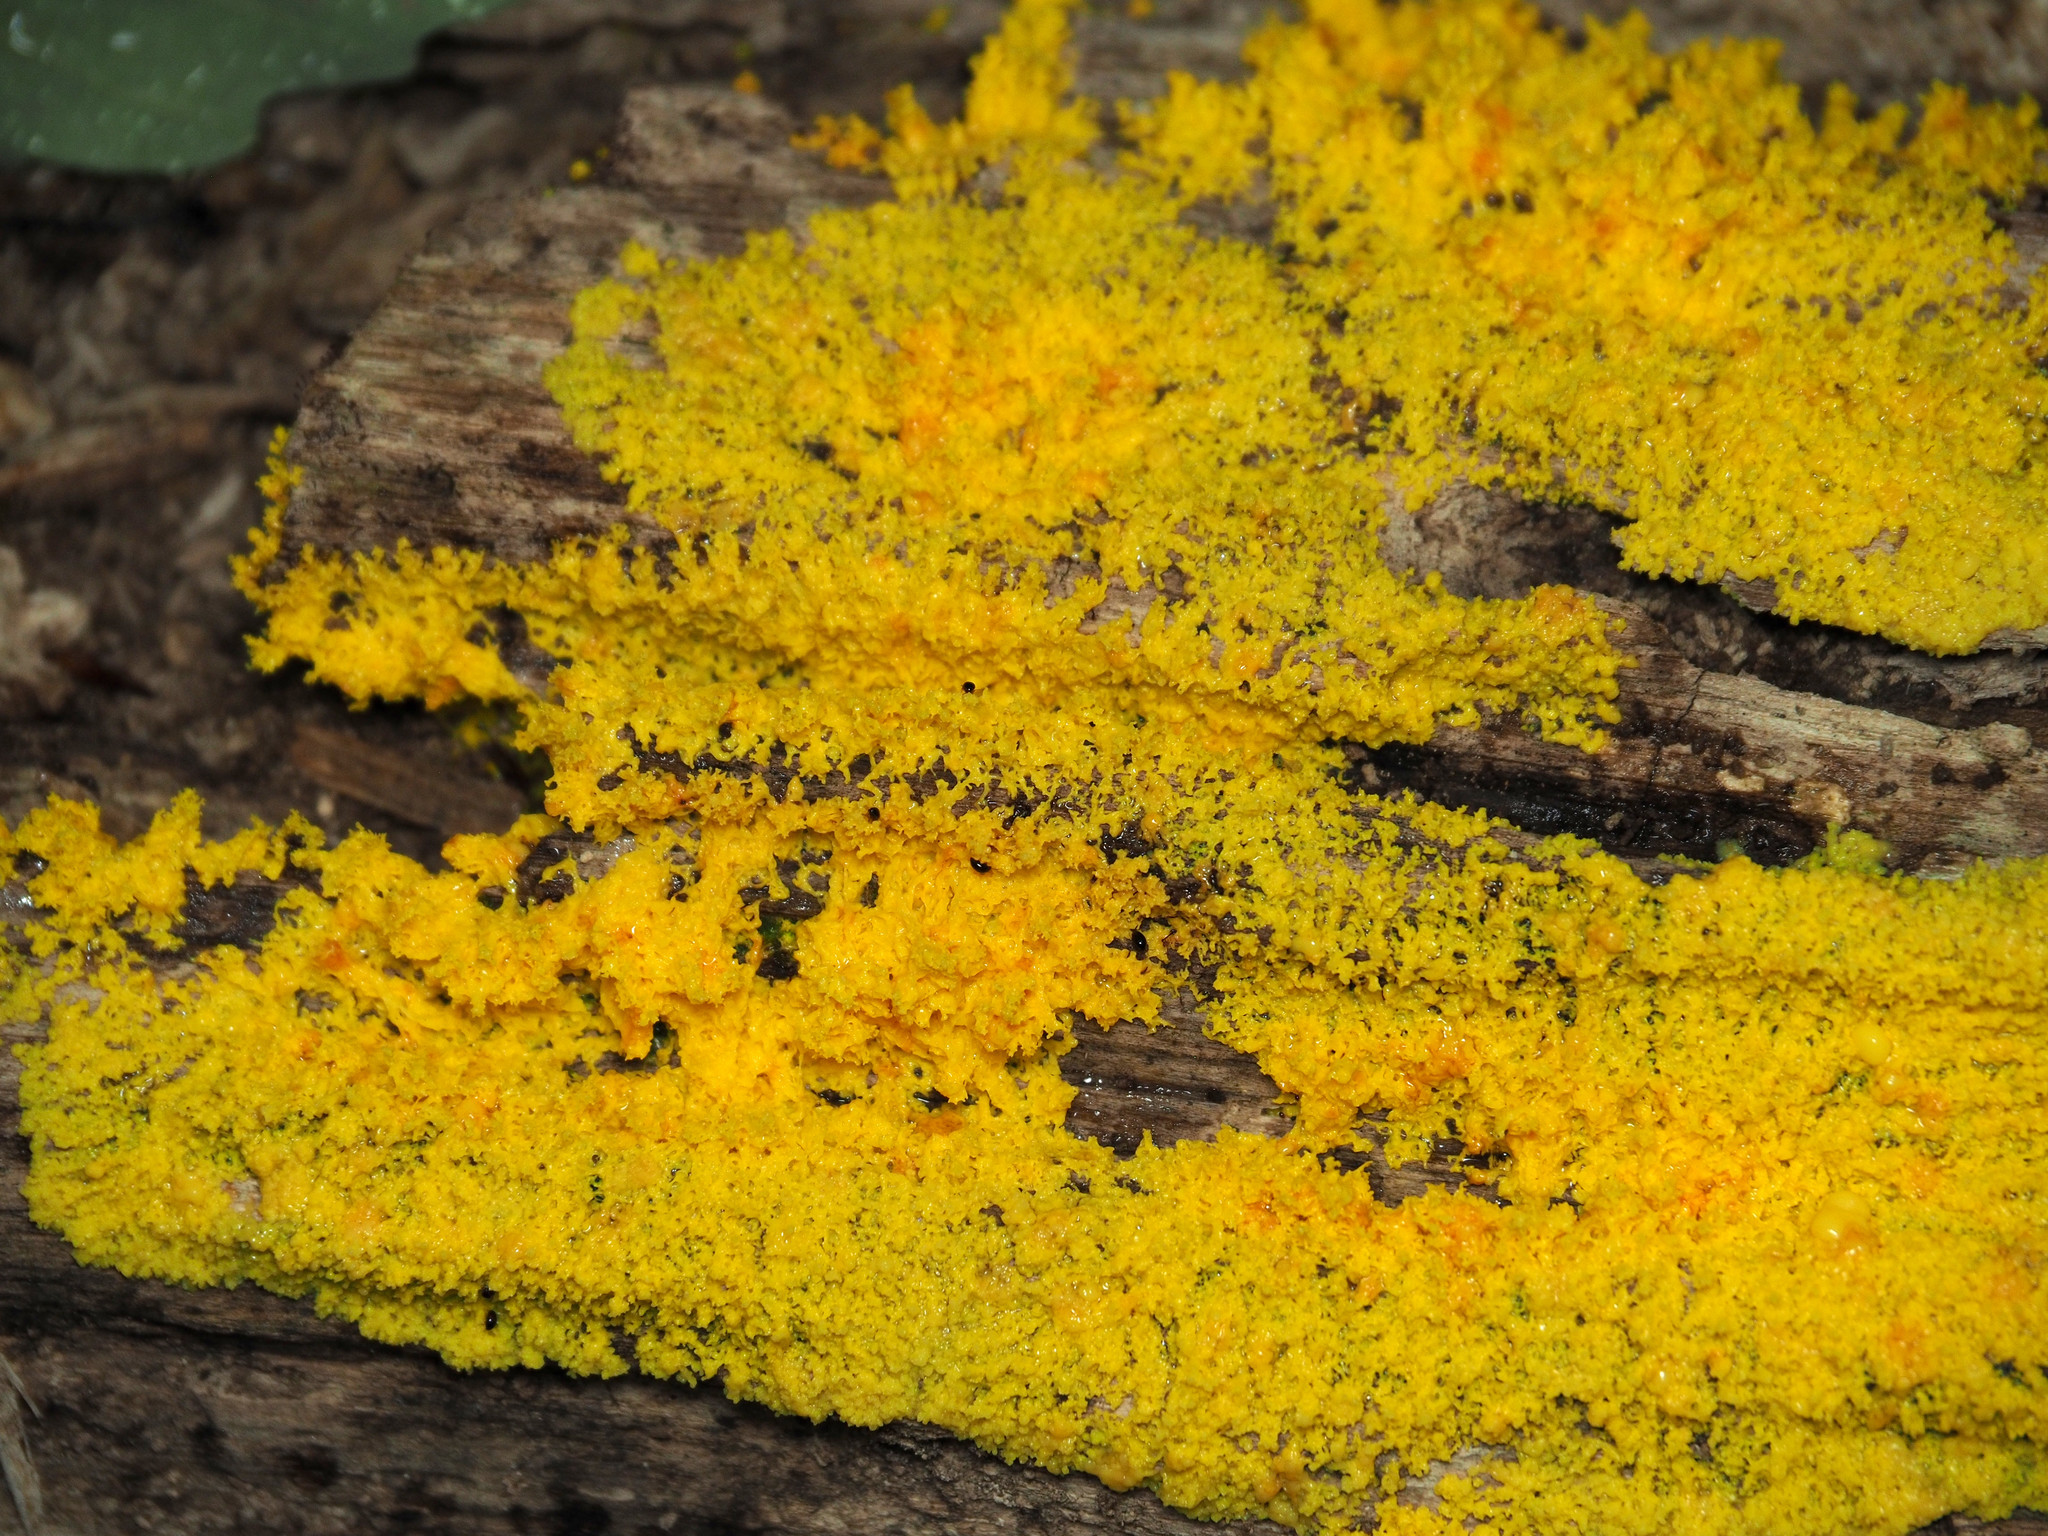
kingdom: Protozoa
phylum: Mycetozoa
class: Myxomycetes
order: Physarales
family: Physaraceae
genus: Fuligo
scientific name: Fuligo septica
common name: Dog vomit slime mold
